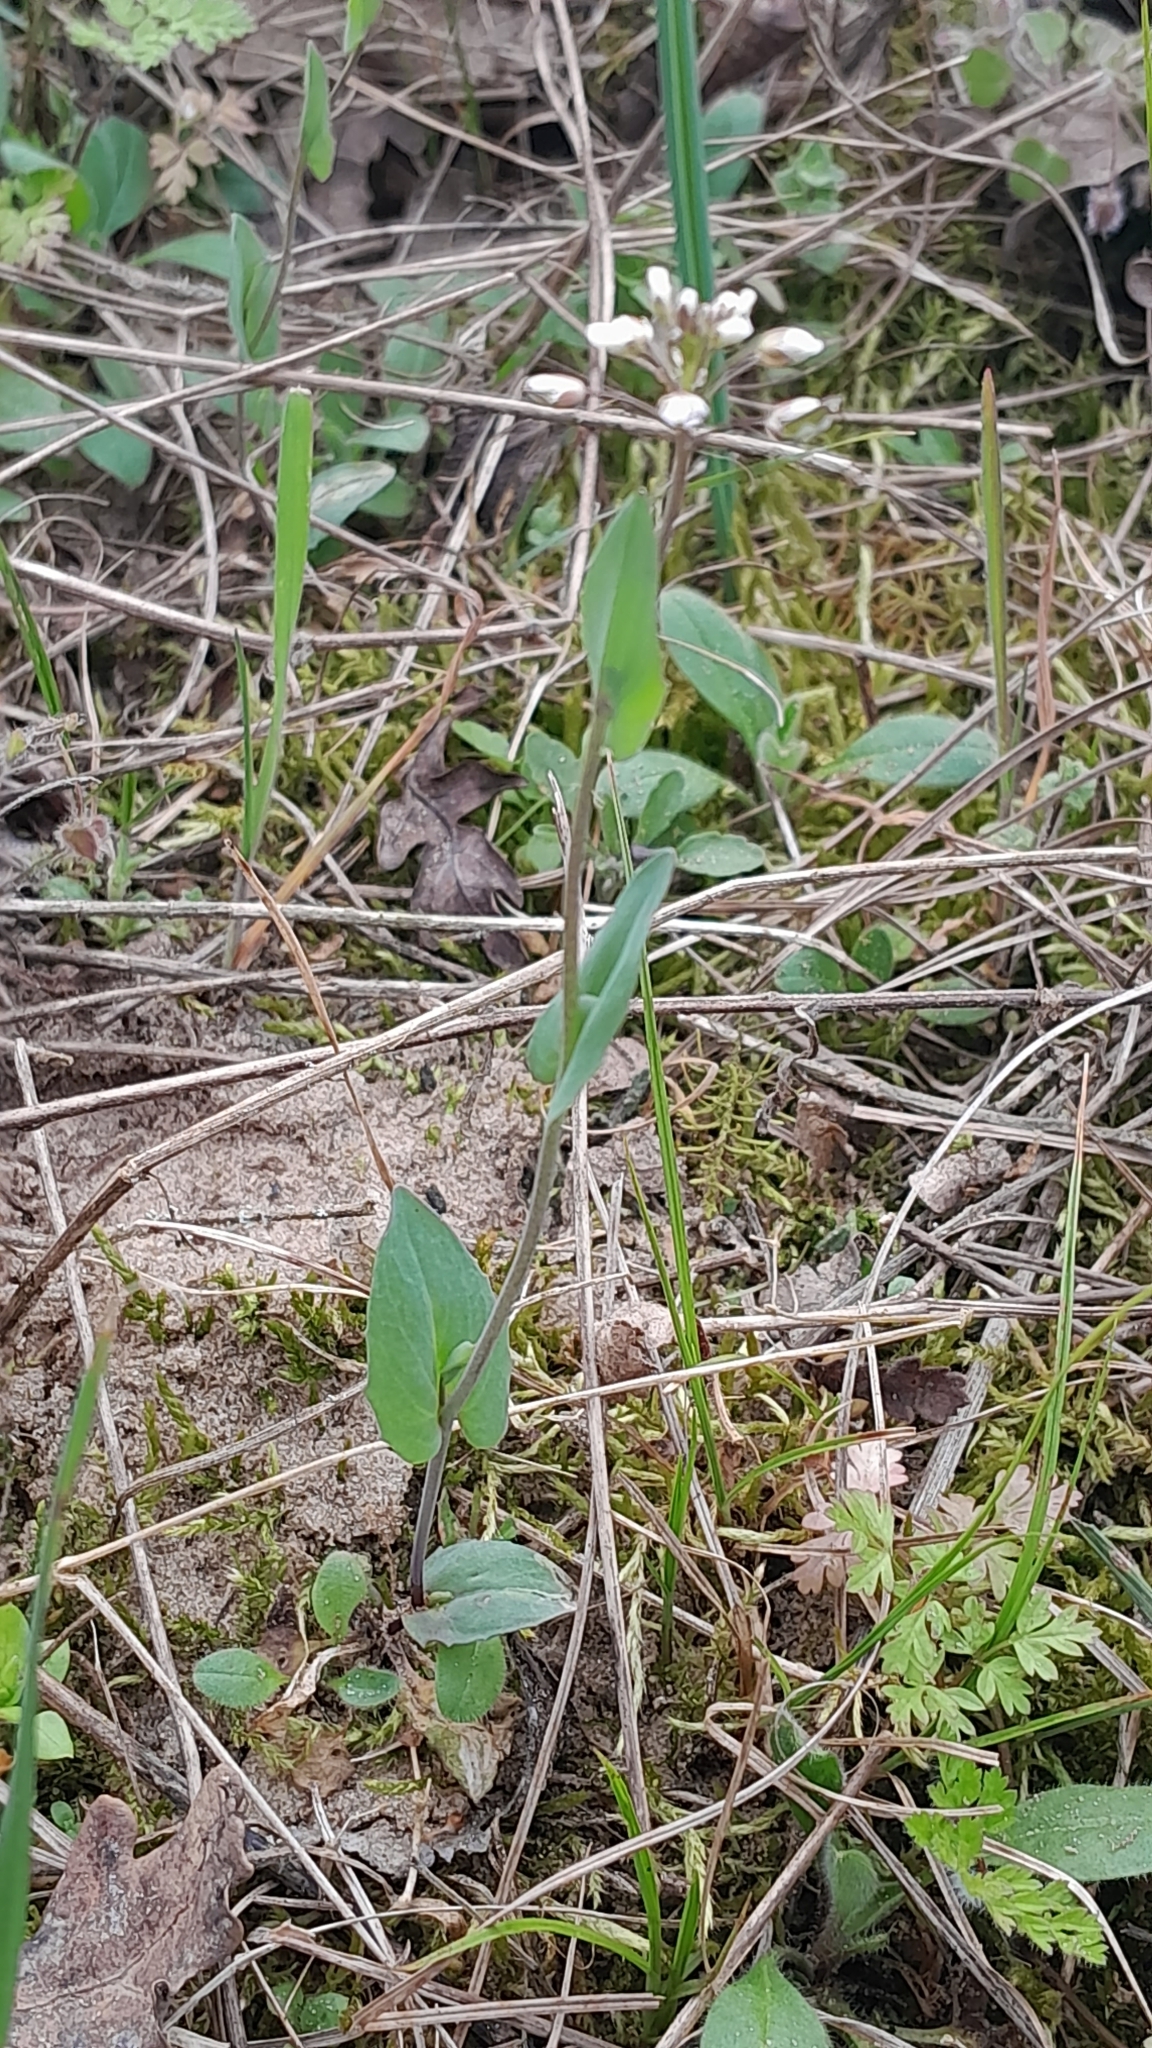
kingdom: Plantae
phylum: Tracheophyta
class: Magnoliopsida
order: Brassicales
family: Brassicaceae
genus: Noccaea
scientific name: Noccaea perfoliata
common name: Perfoliate pennycress
